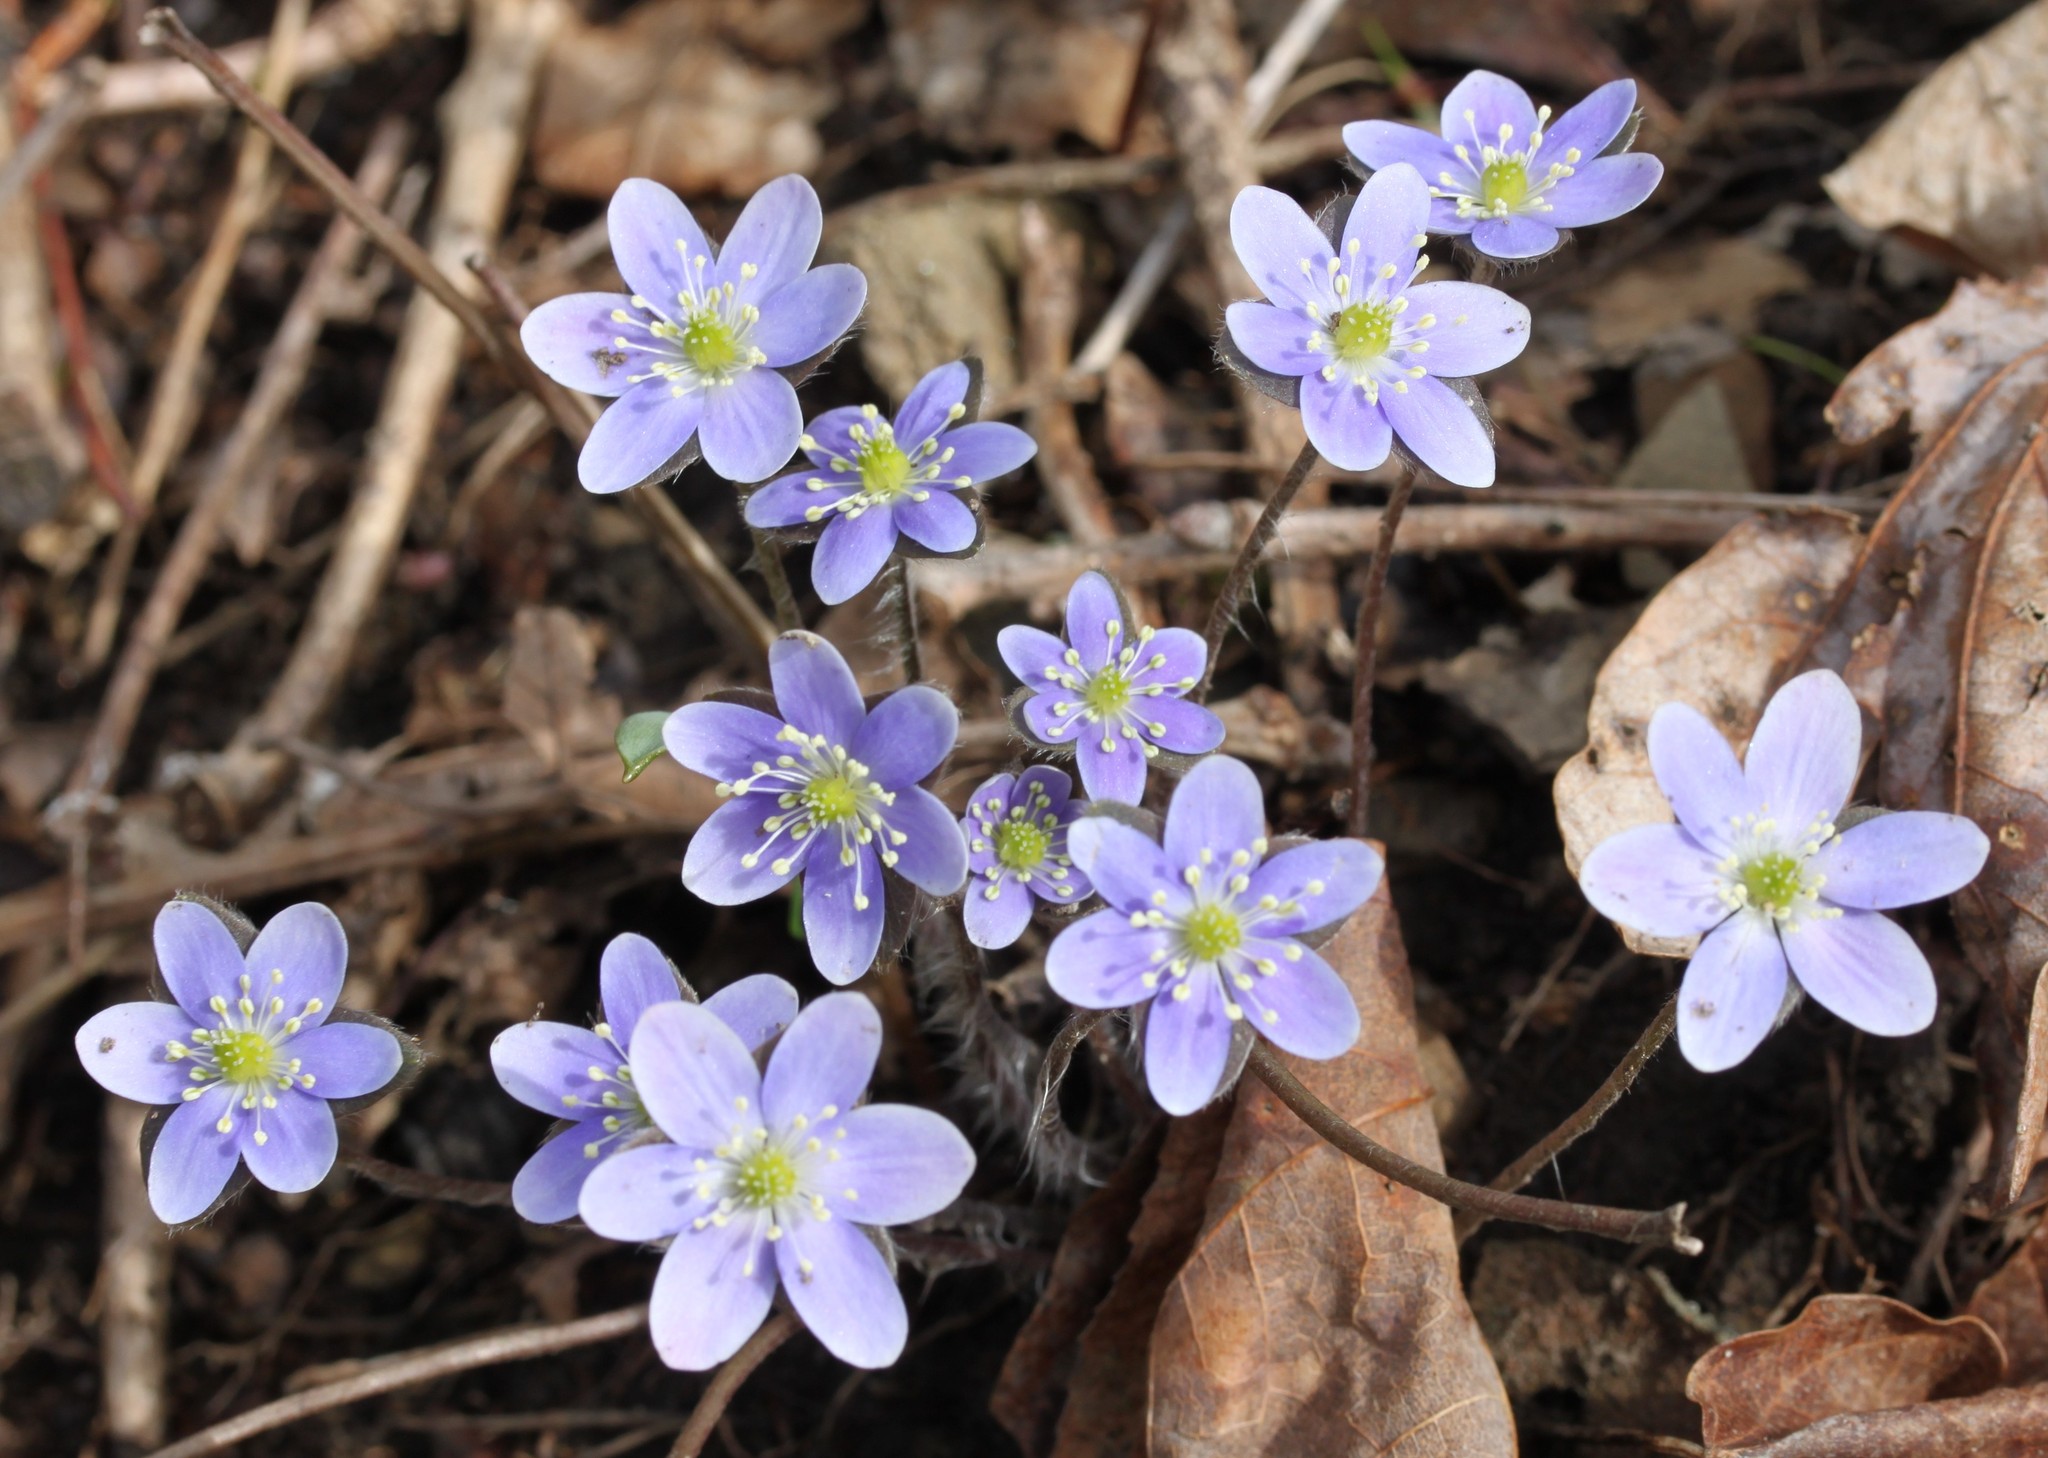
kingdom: Plantae
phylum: Tracheophyta
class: Magnoliopsida
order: Ranunculales
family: Ranunculaceae
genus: Hepatica
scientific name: Hepatica americana
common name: American hepatica
